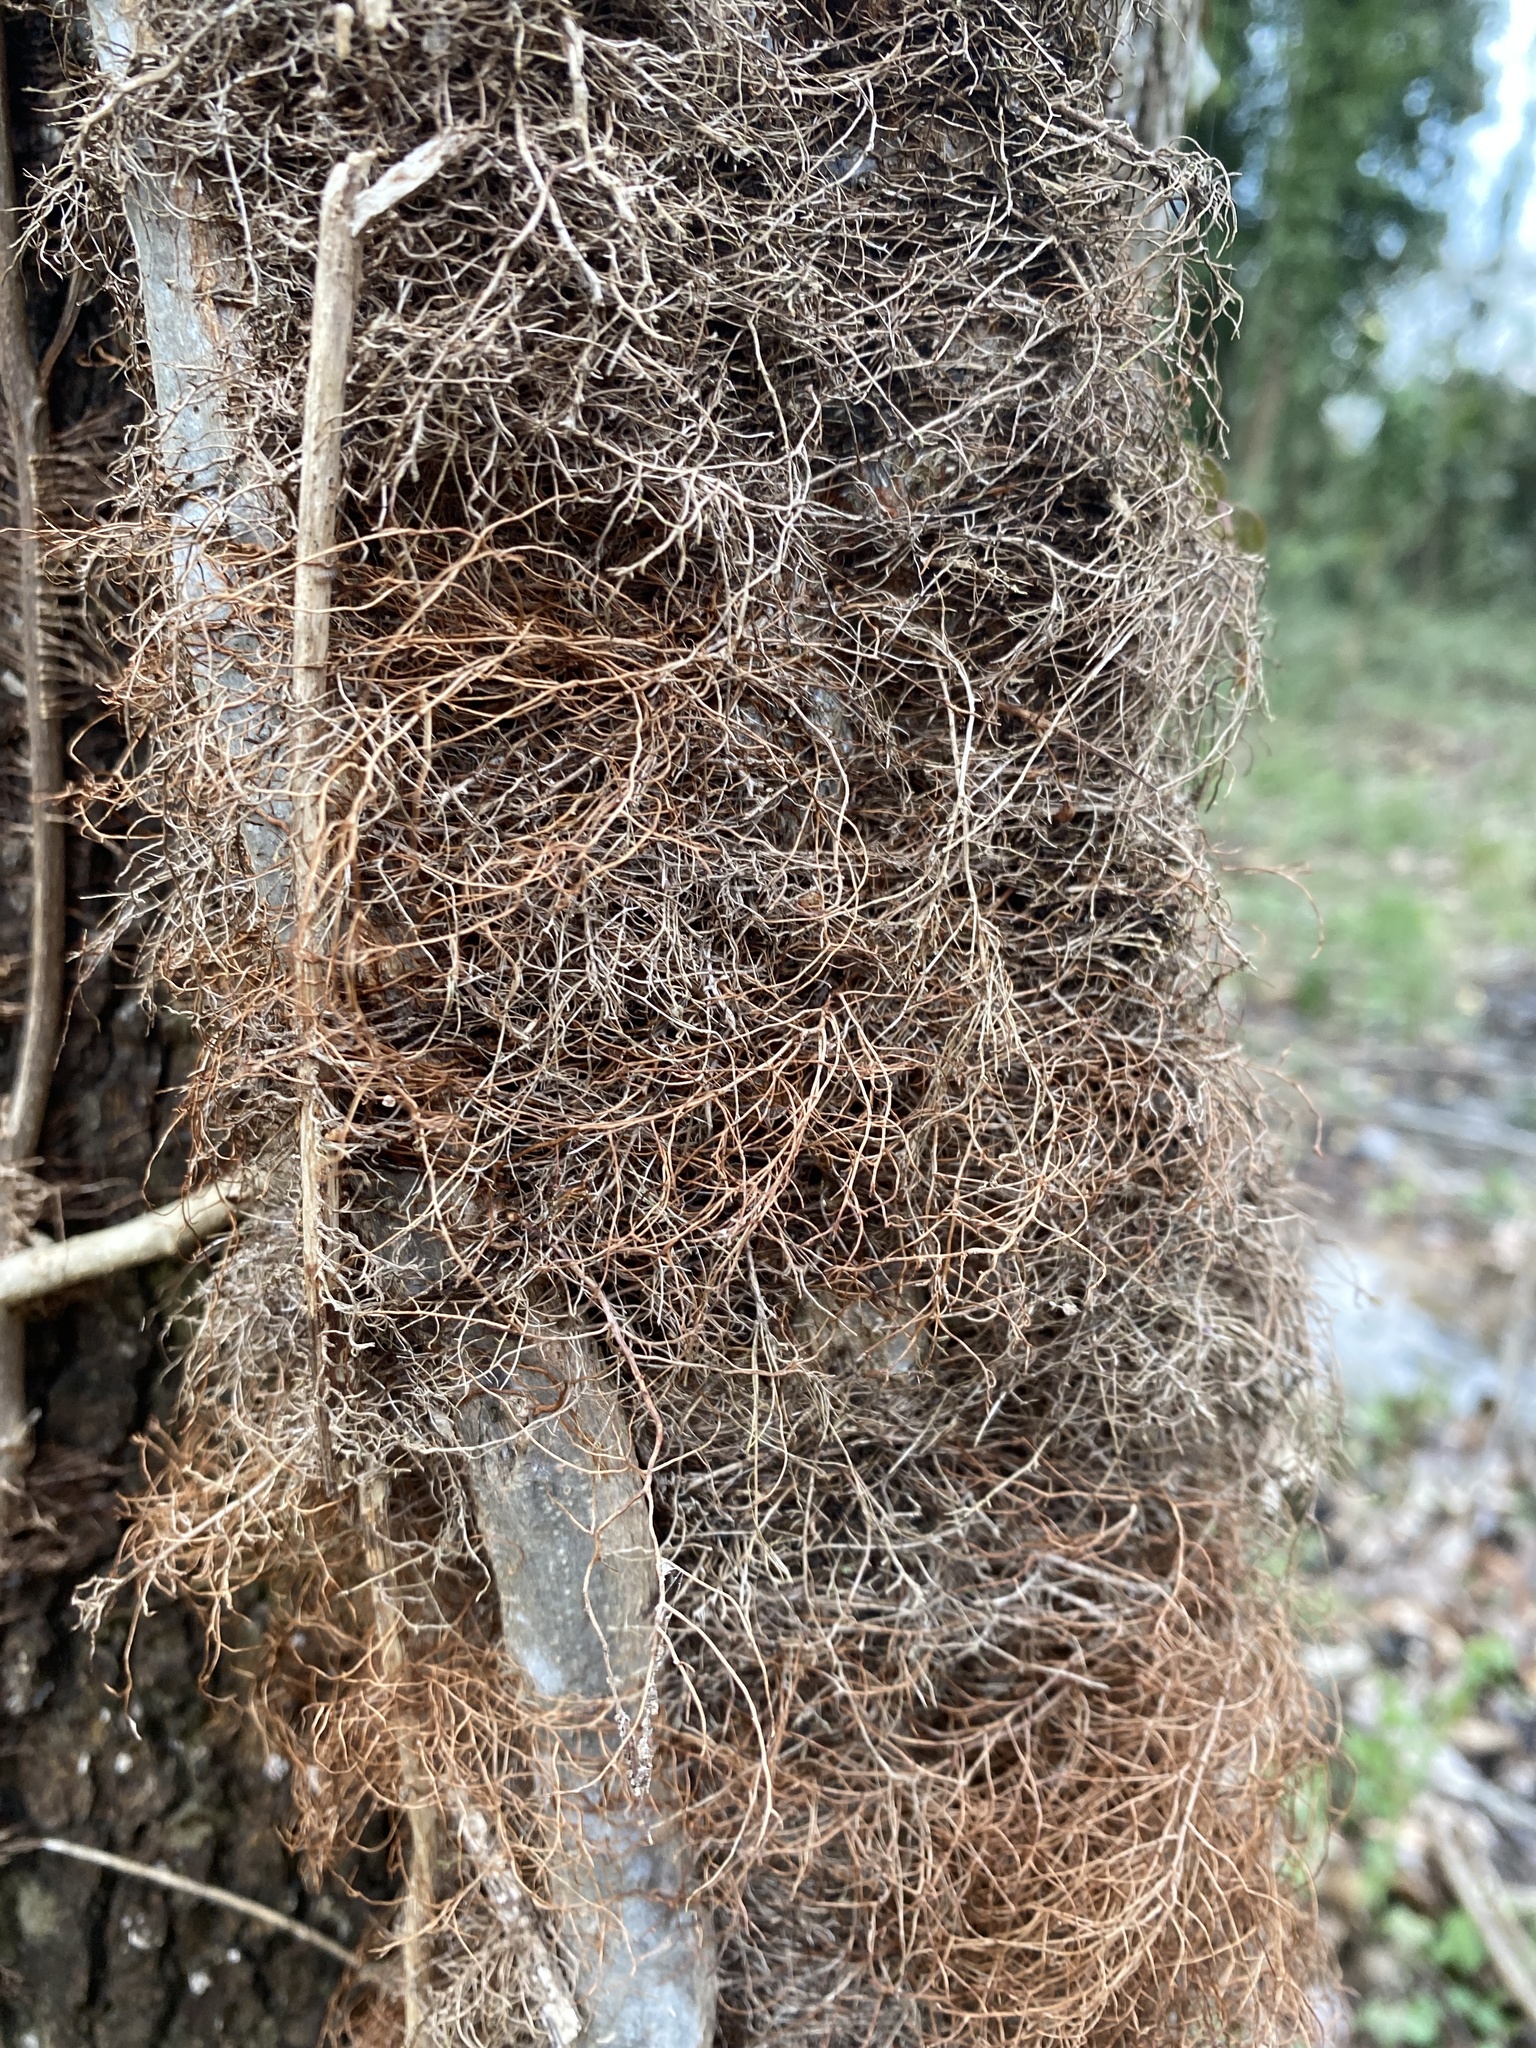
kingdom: Plantae
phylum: Tracheophyta
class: Magnoliopsida
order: Sapindales
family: Anacardiaceae
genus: Toxicodendron
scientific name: Toxicodendron radicans
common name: Poison ivy
